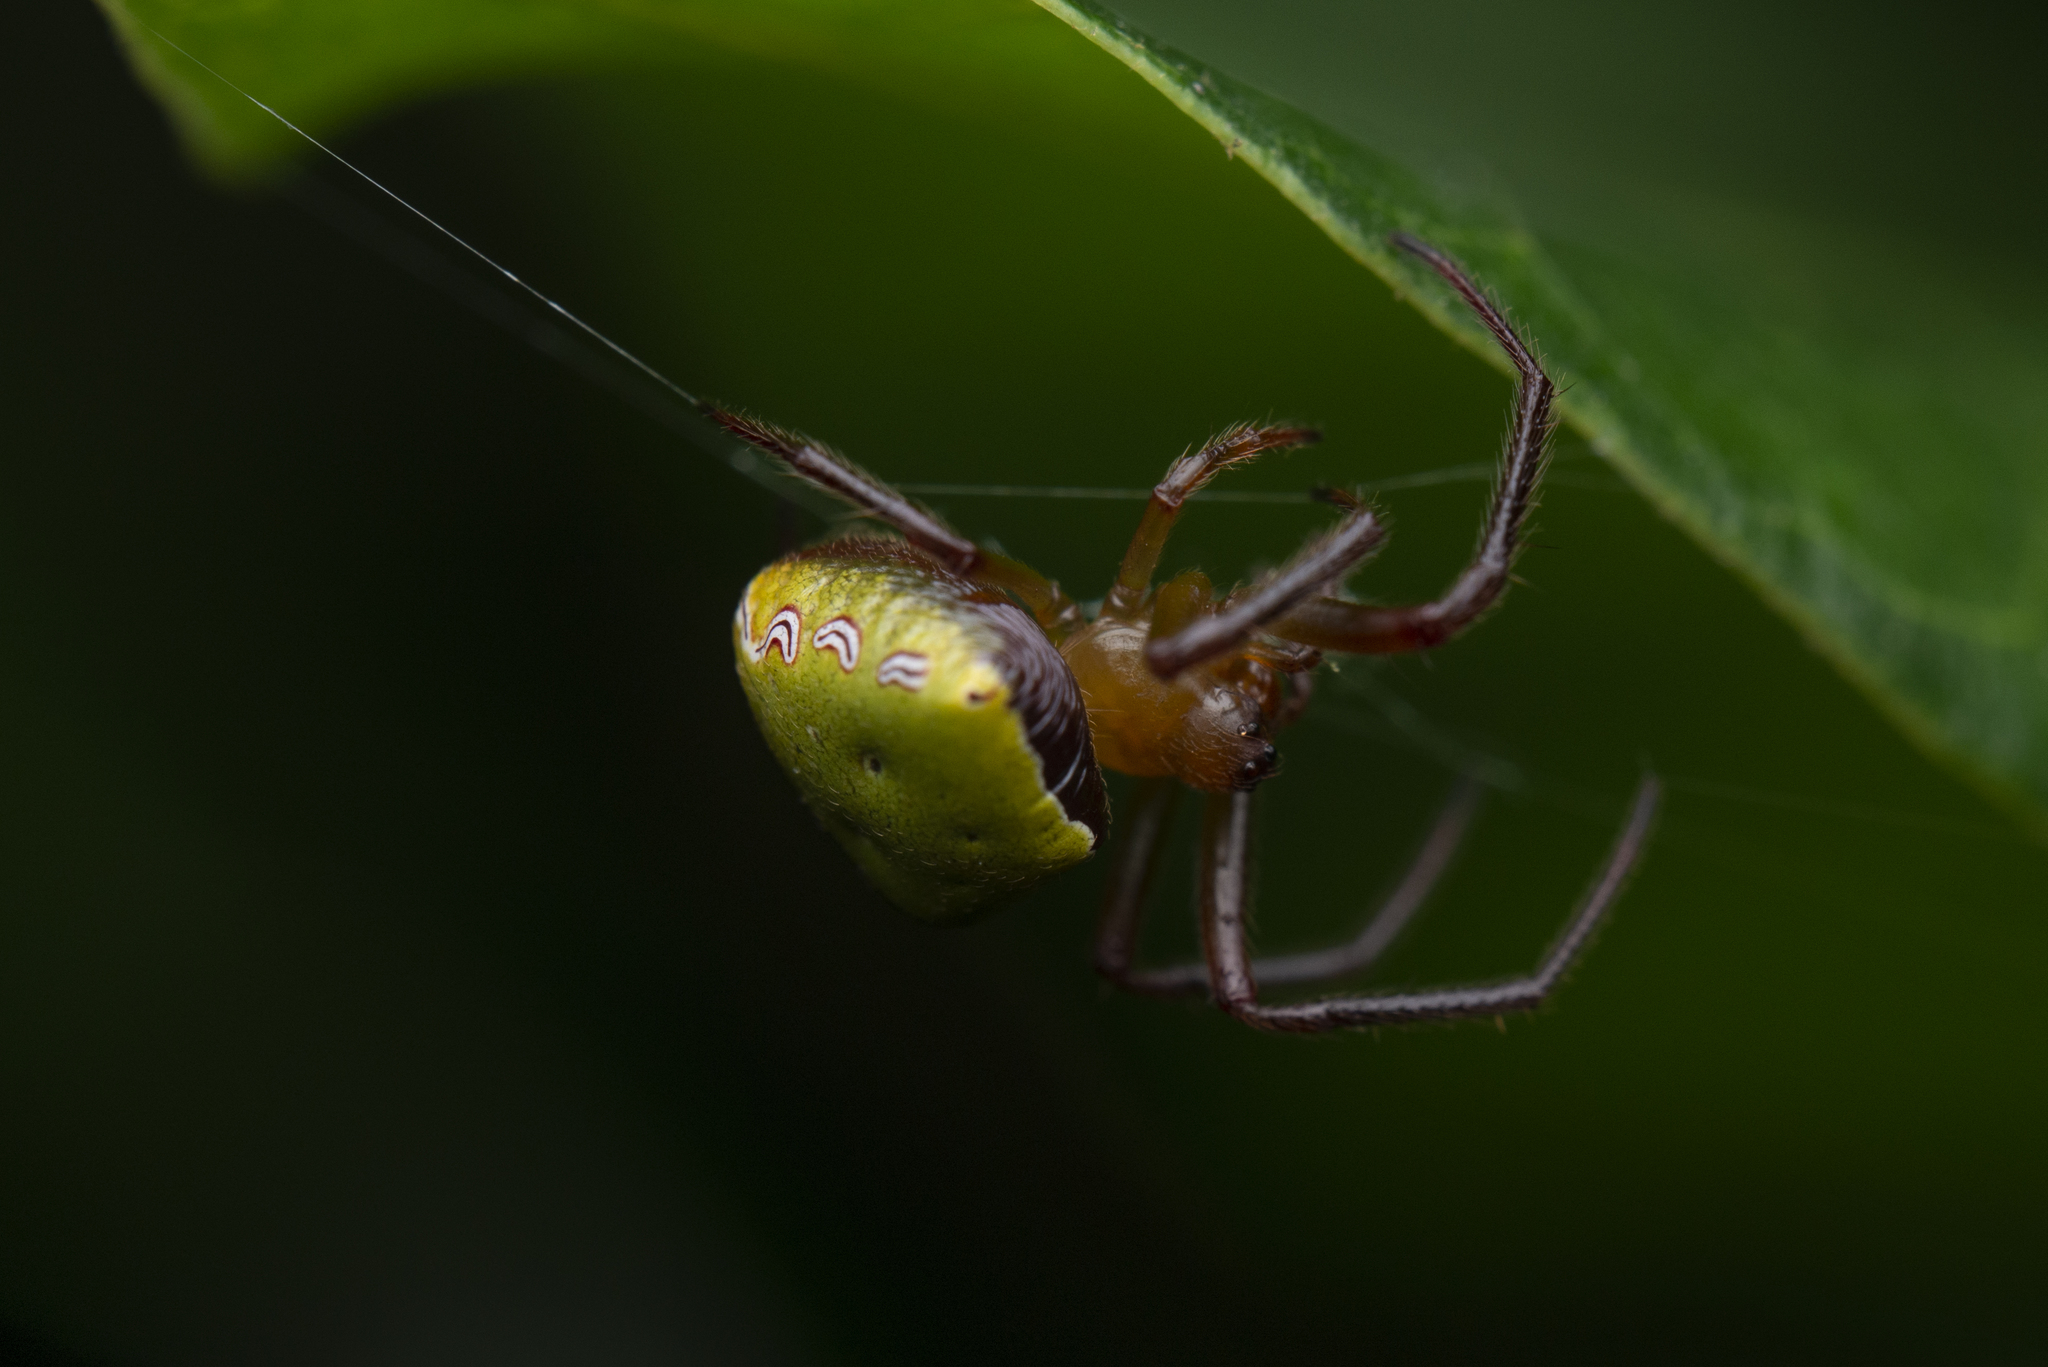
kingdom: Animalia
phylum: Arthropoda
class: Arachnida
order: Araneae
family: Araneidae
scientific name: Araneidae
